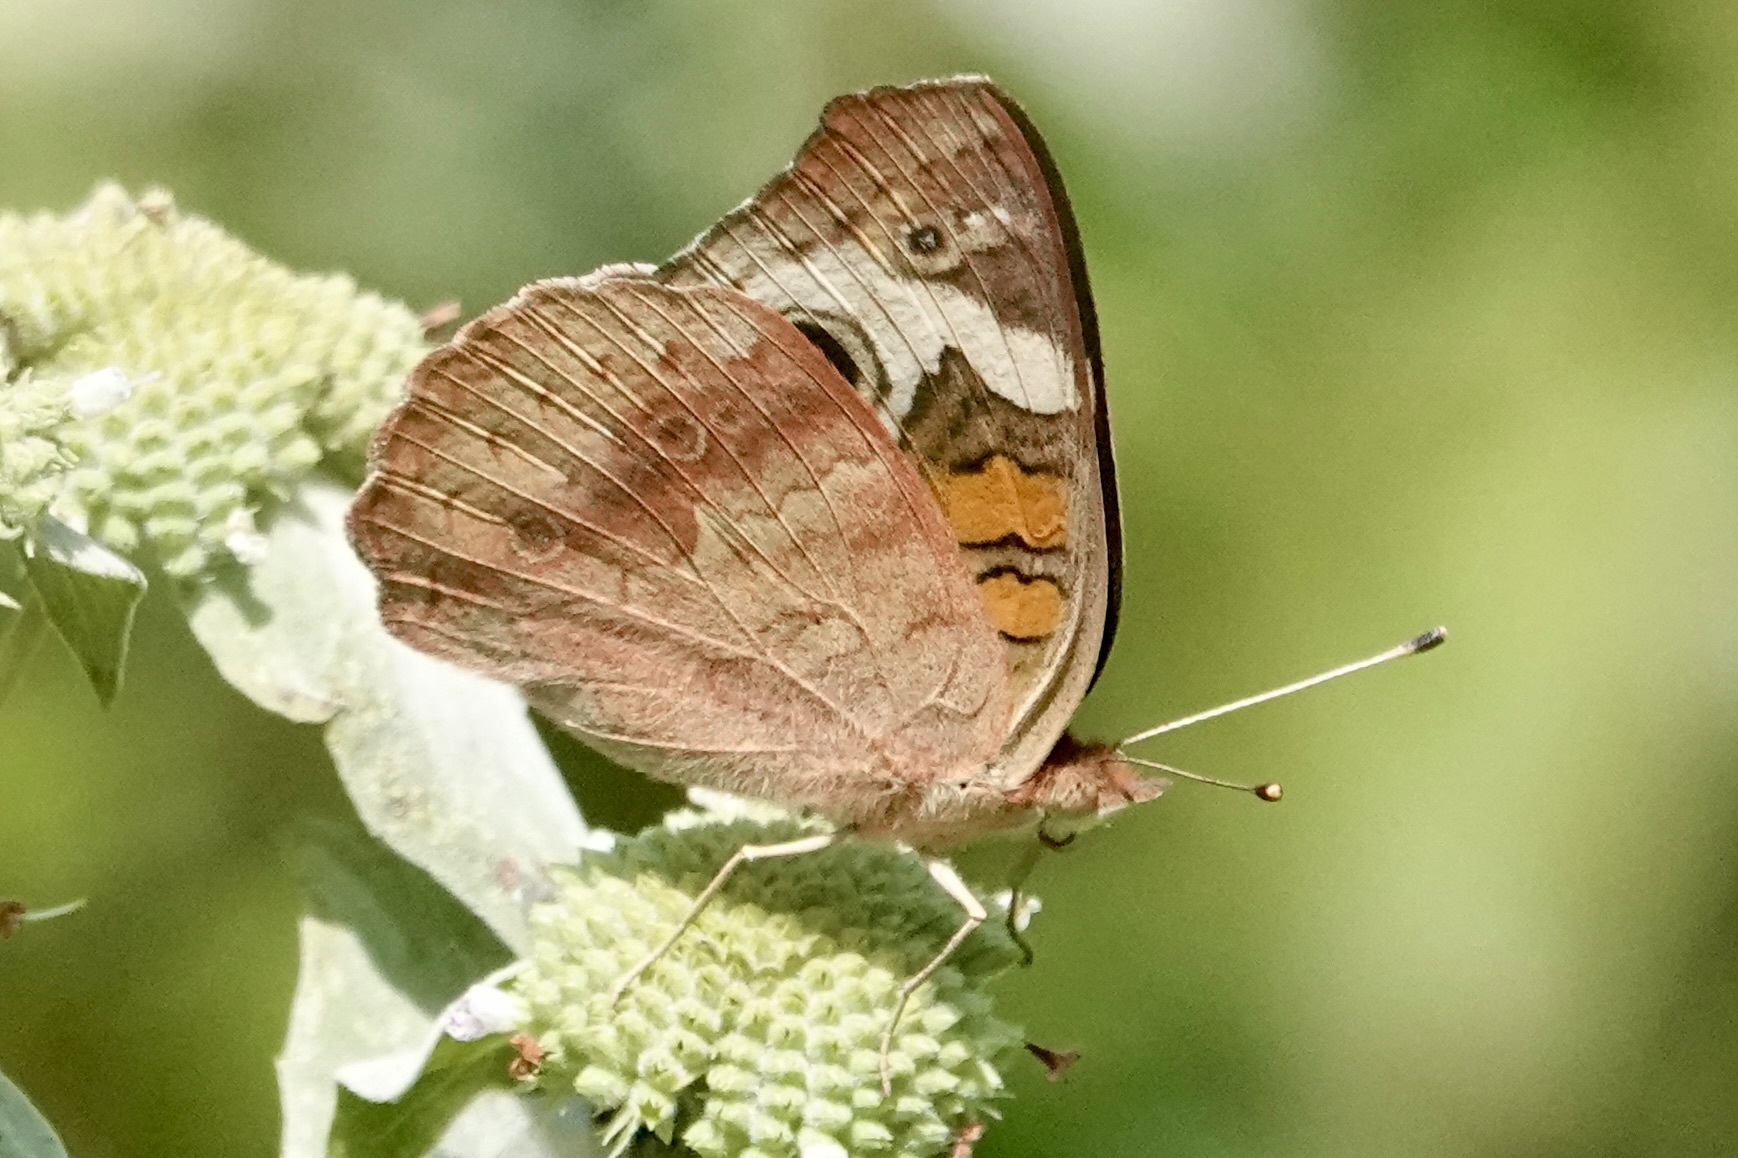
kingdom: Animalia
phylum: Arthropoda
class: Insecta
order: Lepidoptera
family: Nymphalidae
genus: Junonia
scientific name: Junonia coenia
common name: Common buckeye
